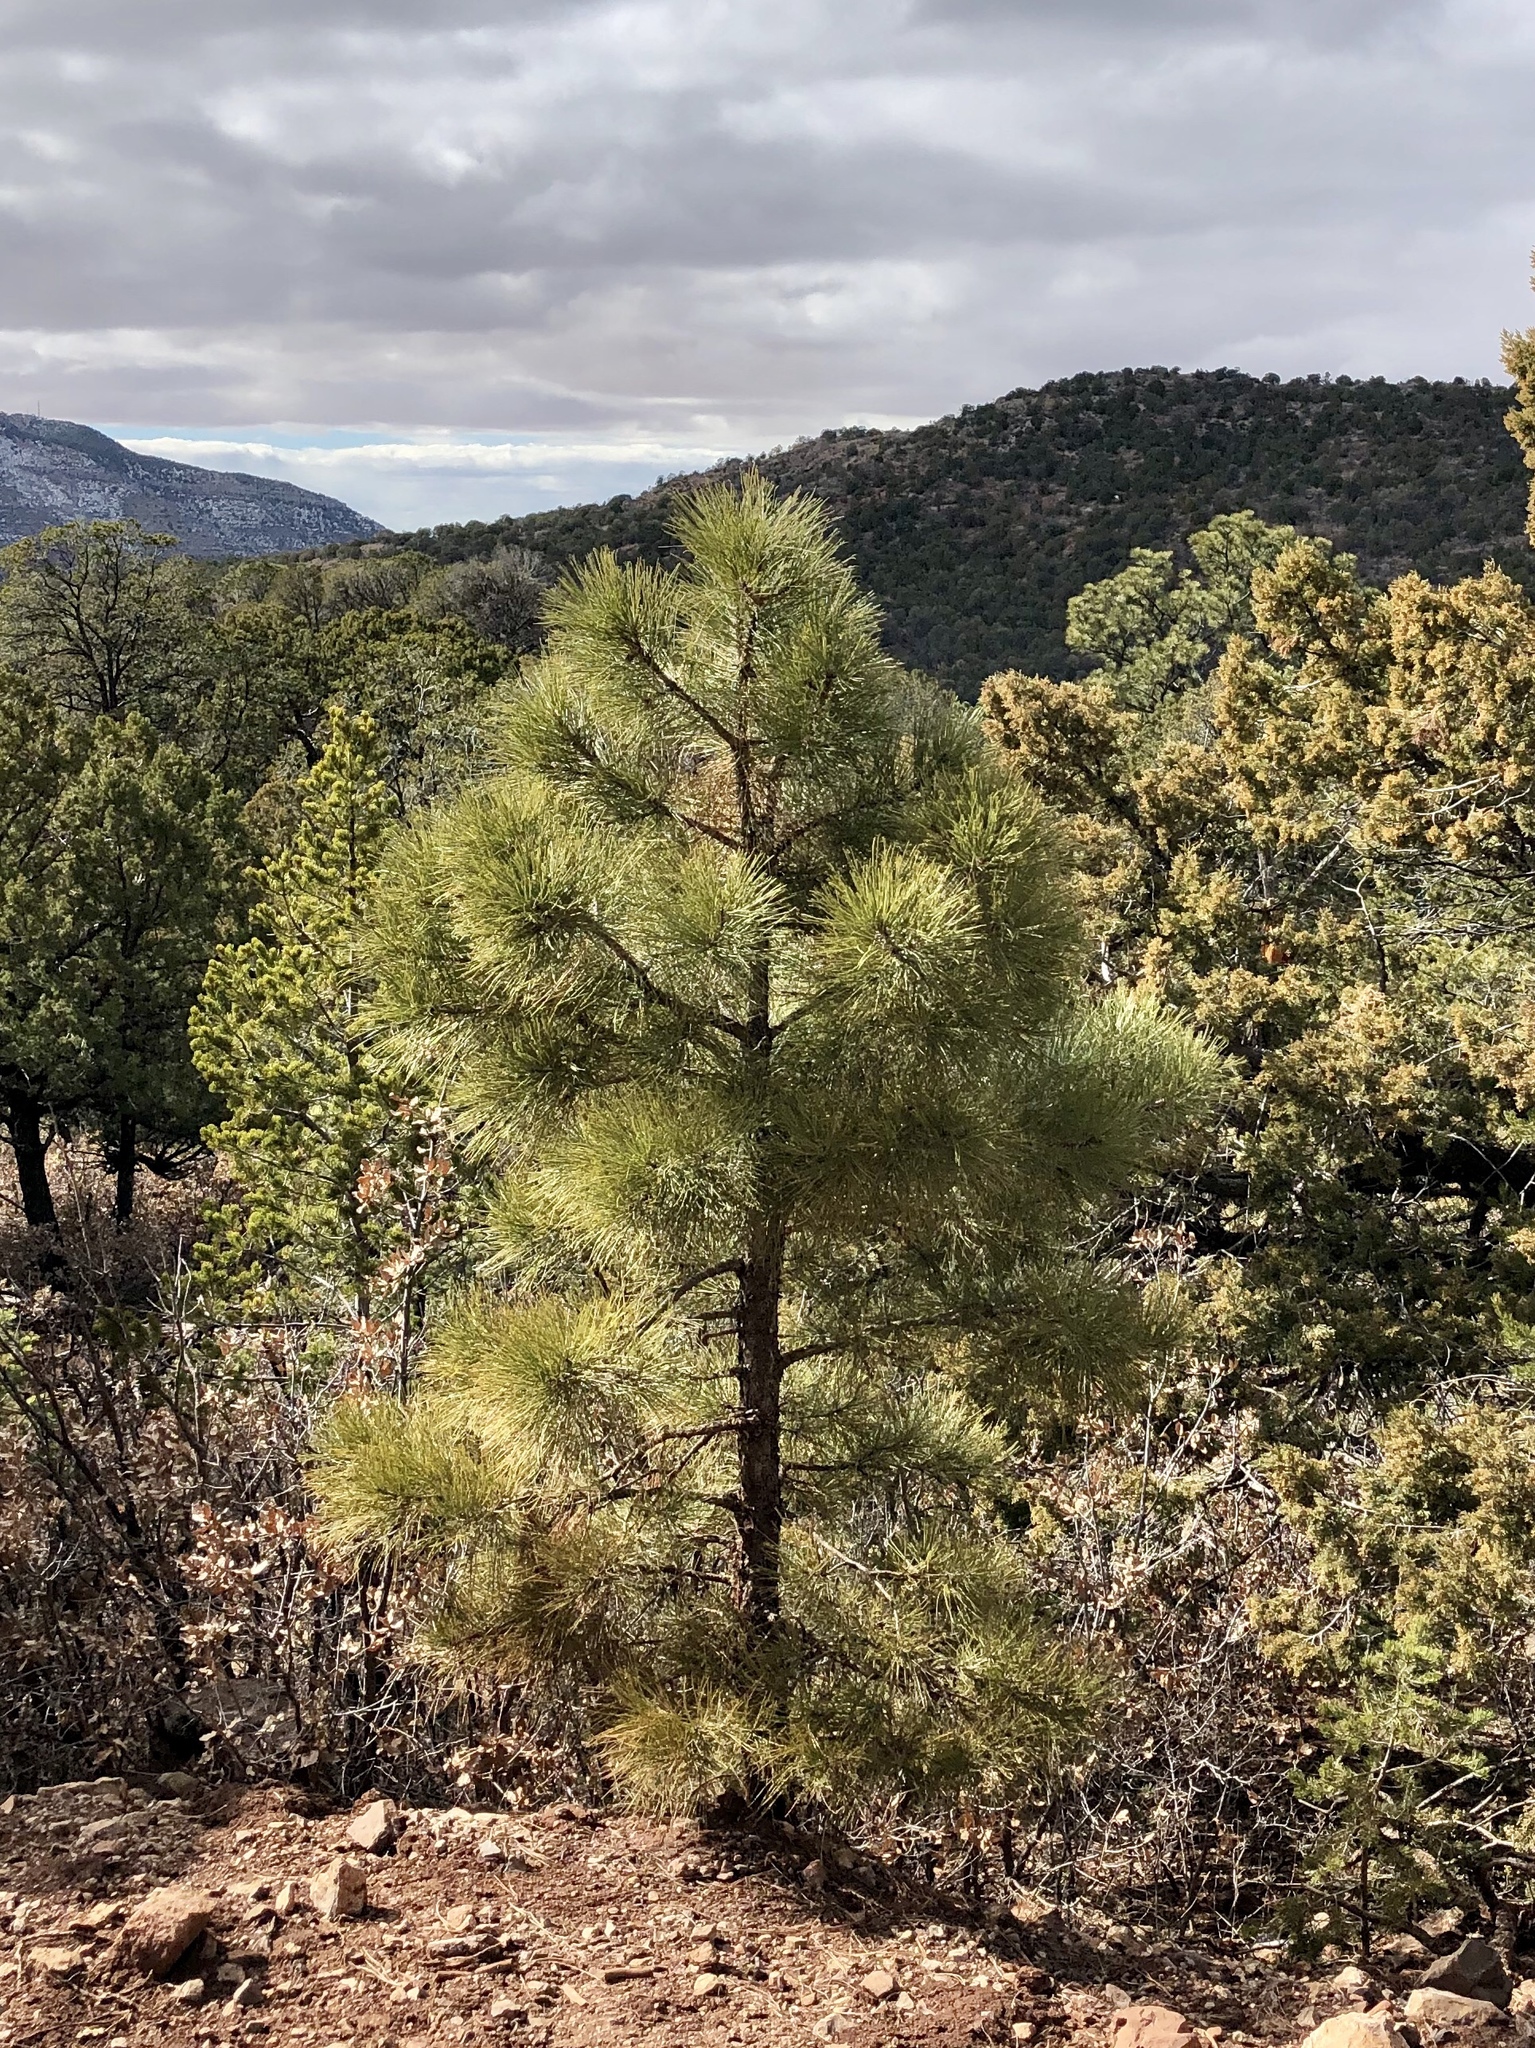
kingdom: Plantae
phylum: Tracheophyta
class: Pinopsida
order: Pinales
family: Pinaceae
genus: Pinus
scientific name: Pinus ponderosa
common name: Western yellow-pine
